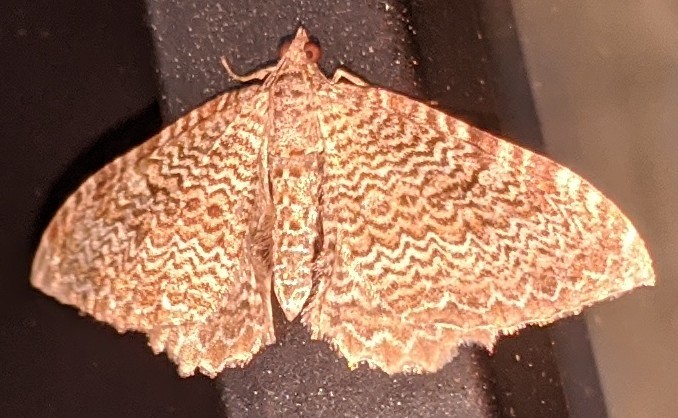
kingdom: Animalia
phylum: Arthropoda
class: Insecta
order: Lepidoptera
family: Geometridae
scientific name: Geometridae
